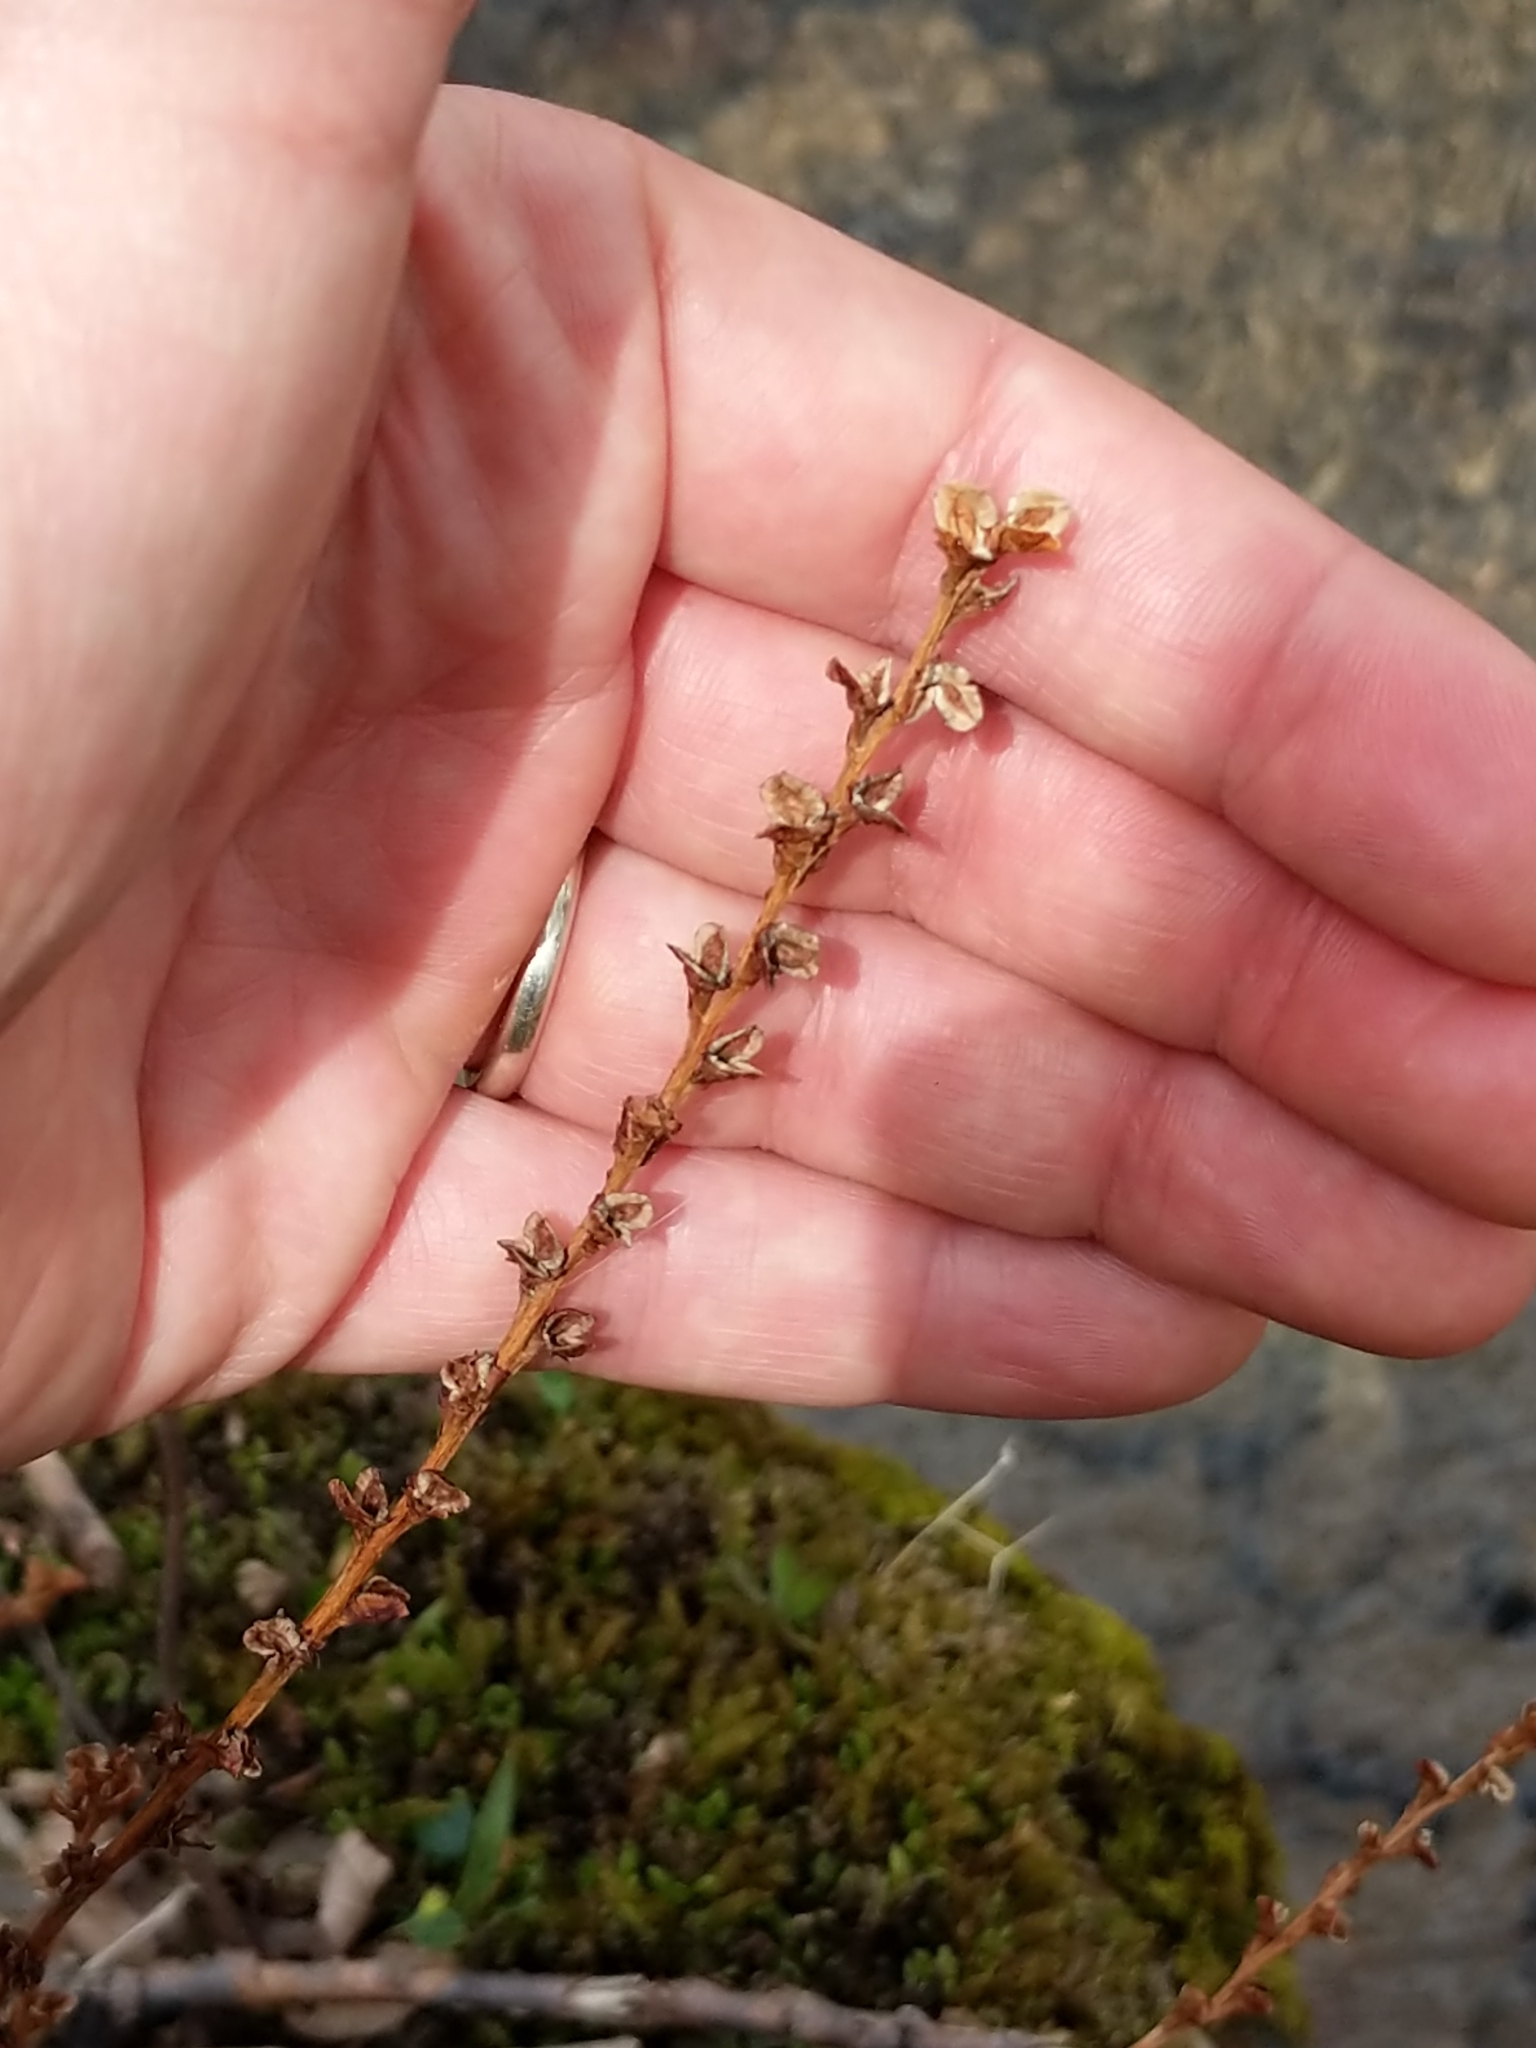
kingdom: Plantae
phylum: Tracheophyta
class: Magnoliopsida
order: Lamiales
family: Orobanchaceae
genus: Epifagus
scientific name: Epifagus virginiana
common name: Beechdrops
